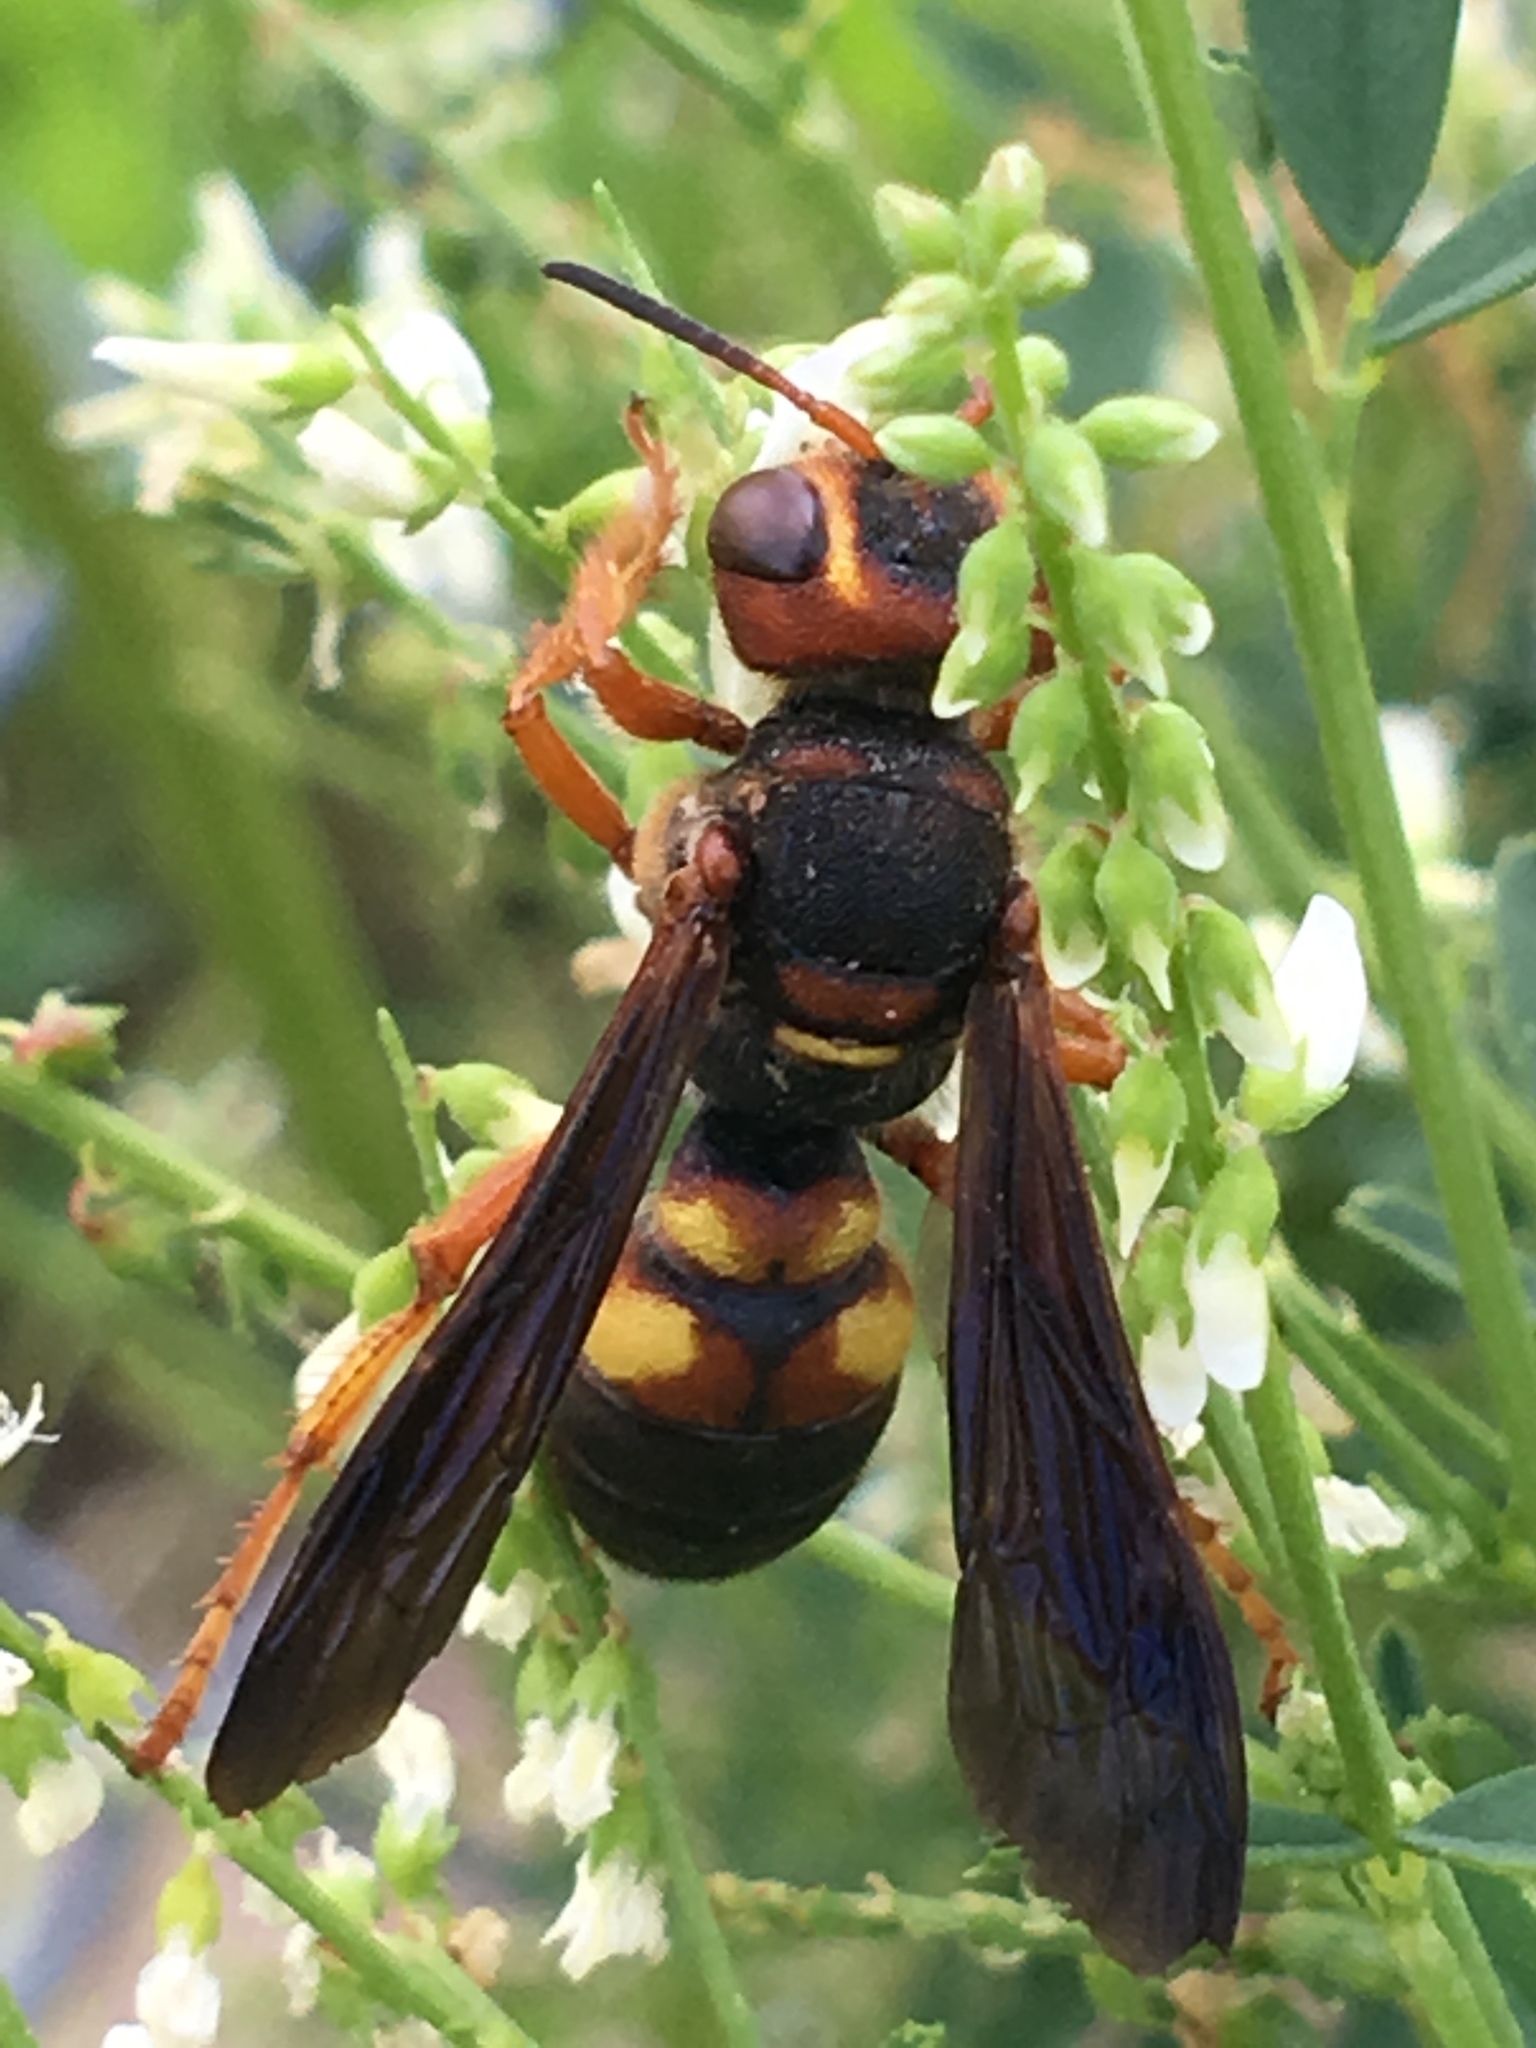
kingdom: Animalia
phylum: Arthropoda
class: Insecta
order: Hymenoptera
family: Crabronidae
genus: Cerceris
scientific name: Cerceris bicornuta
